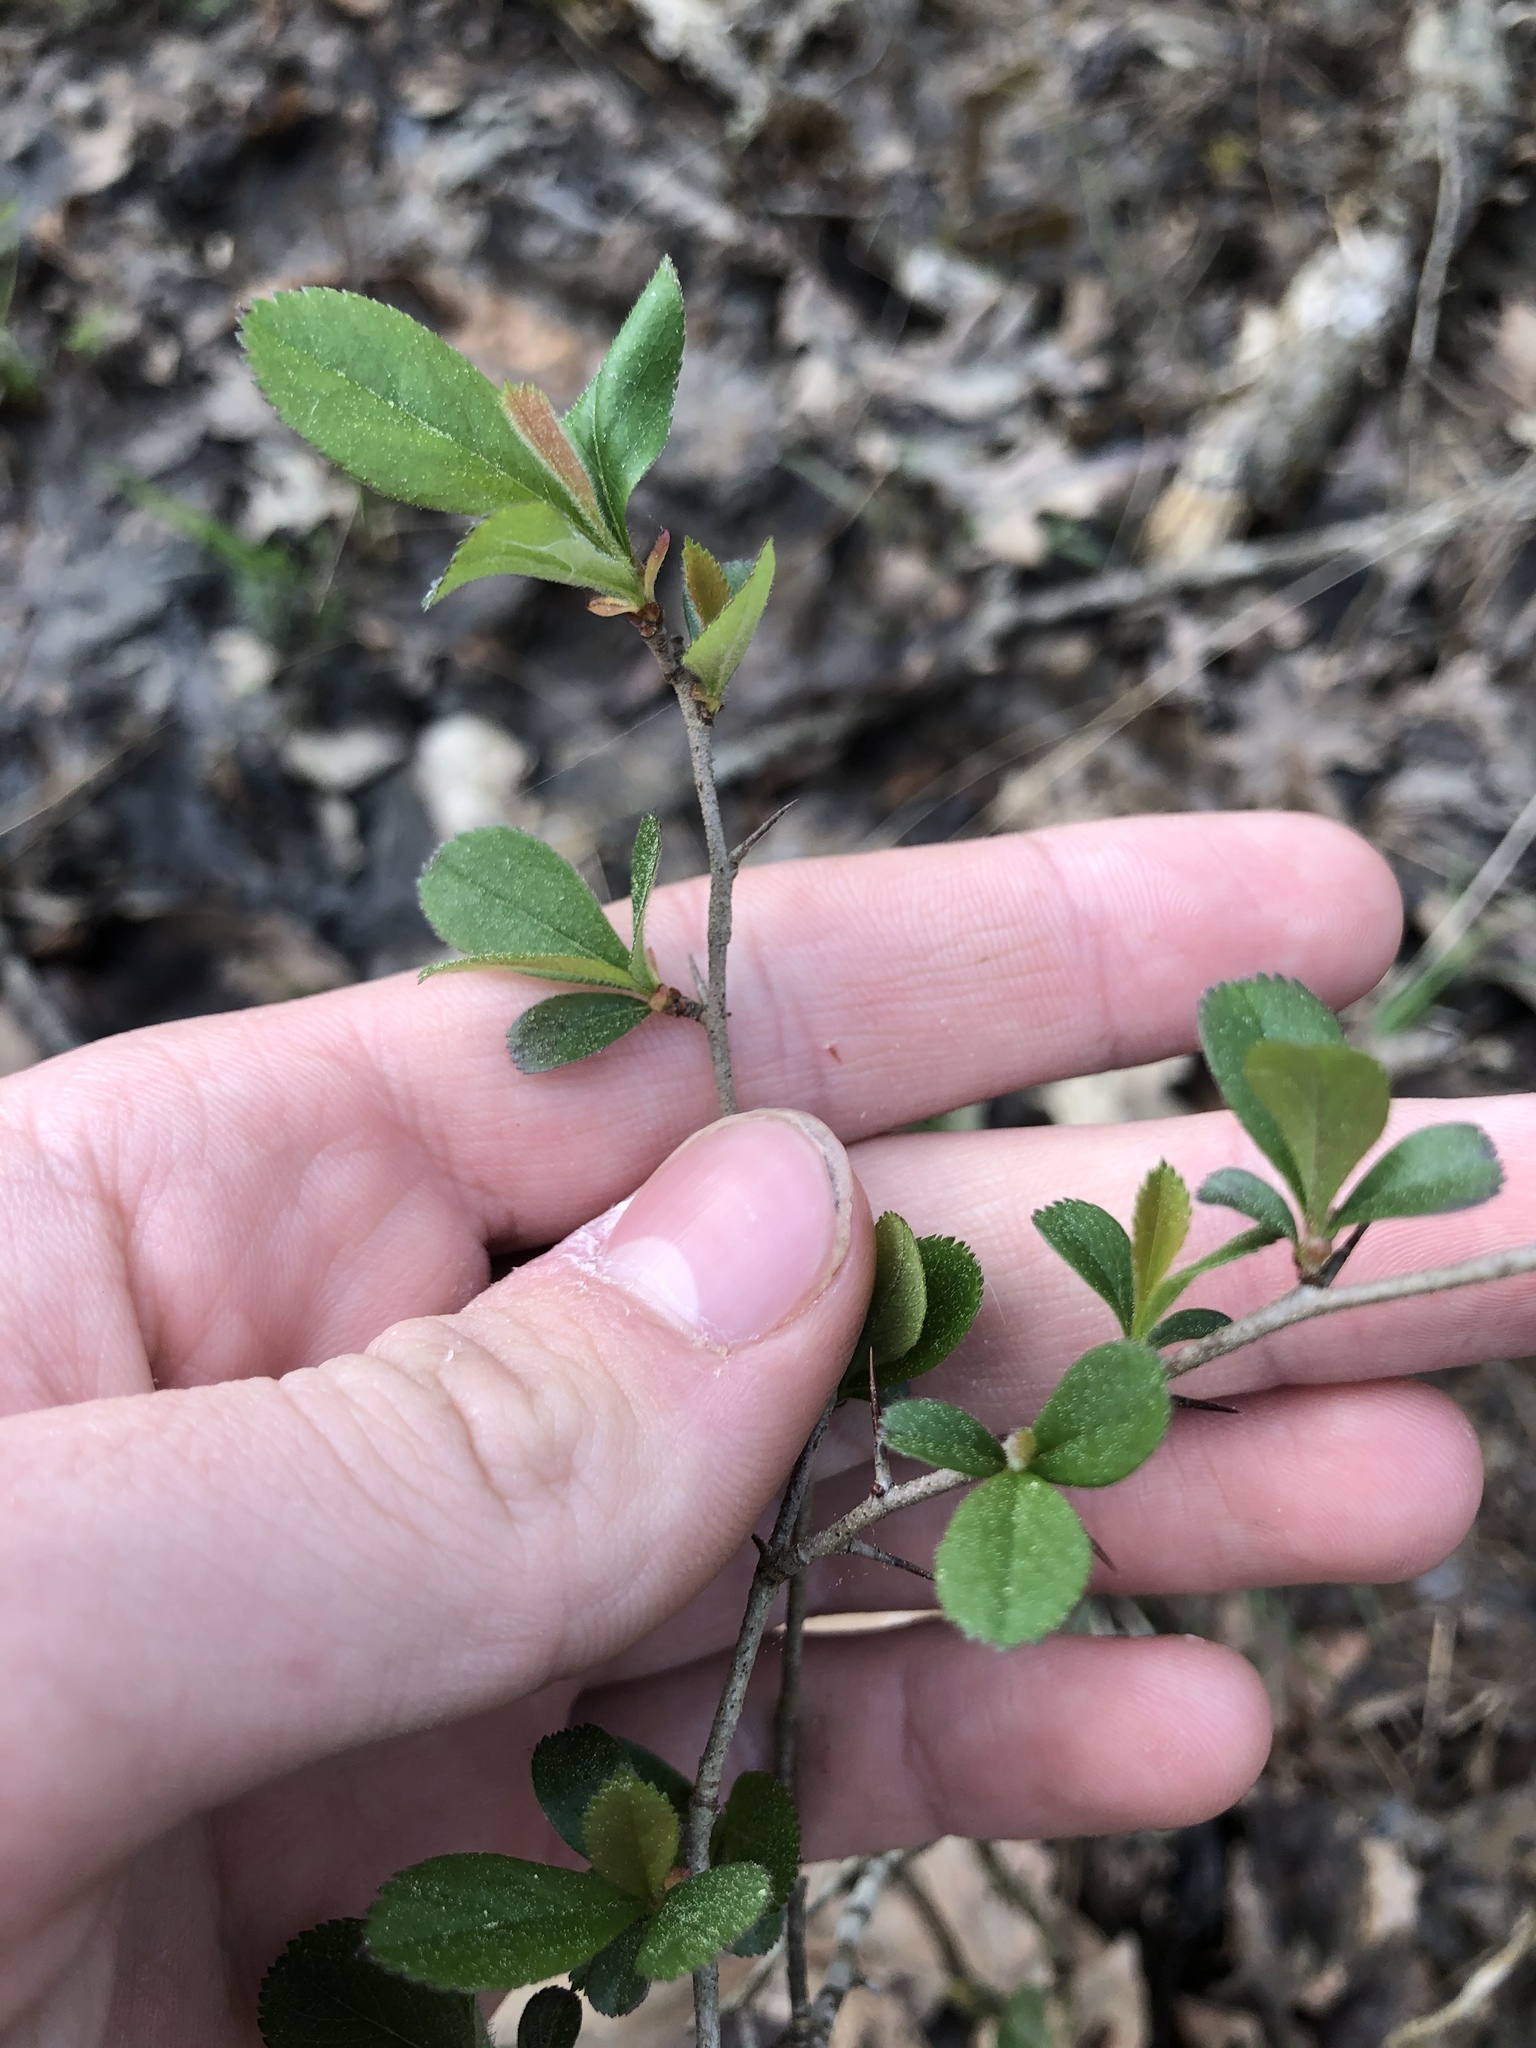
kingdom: Plantae
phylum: Tracheophyta
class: Magnoliopsida
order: Rosales
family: Rosaceae
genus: Crataegus
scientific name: Crataegus berberifolia
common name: Barberry hawthorn
